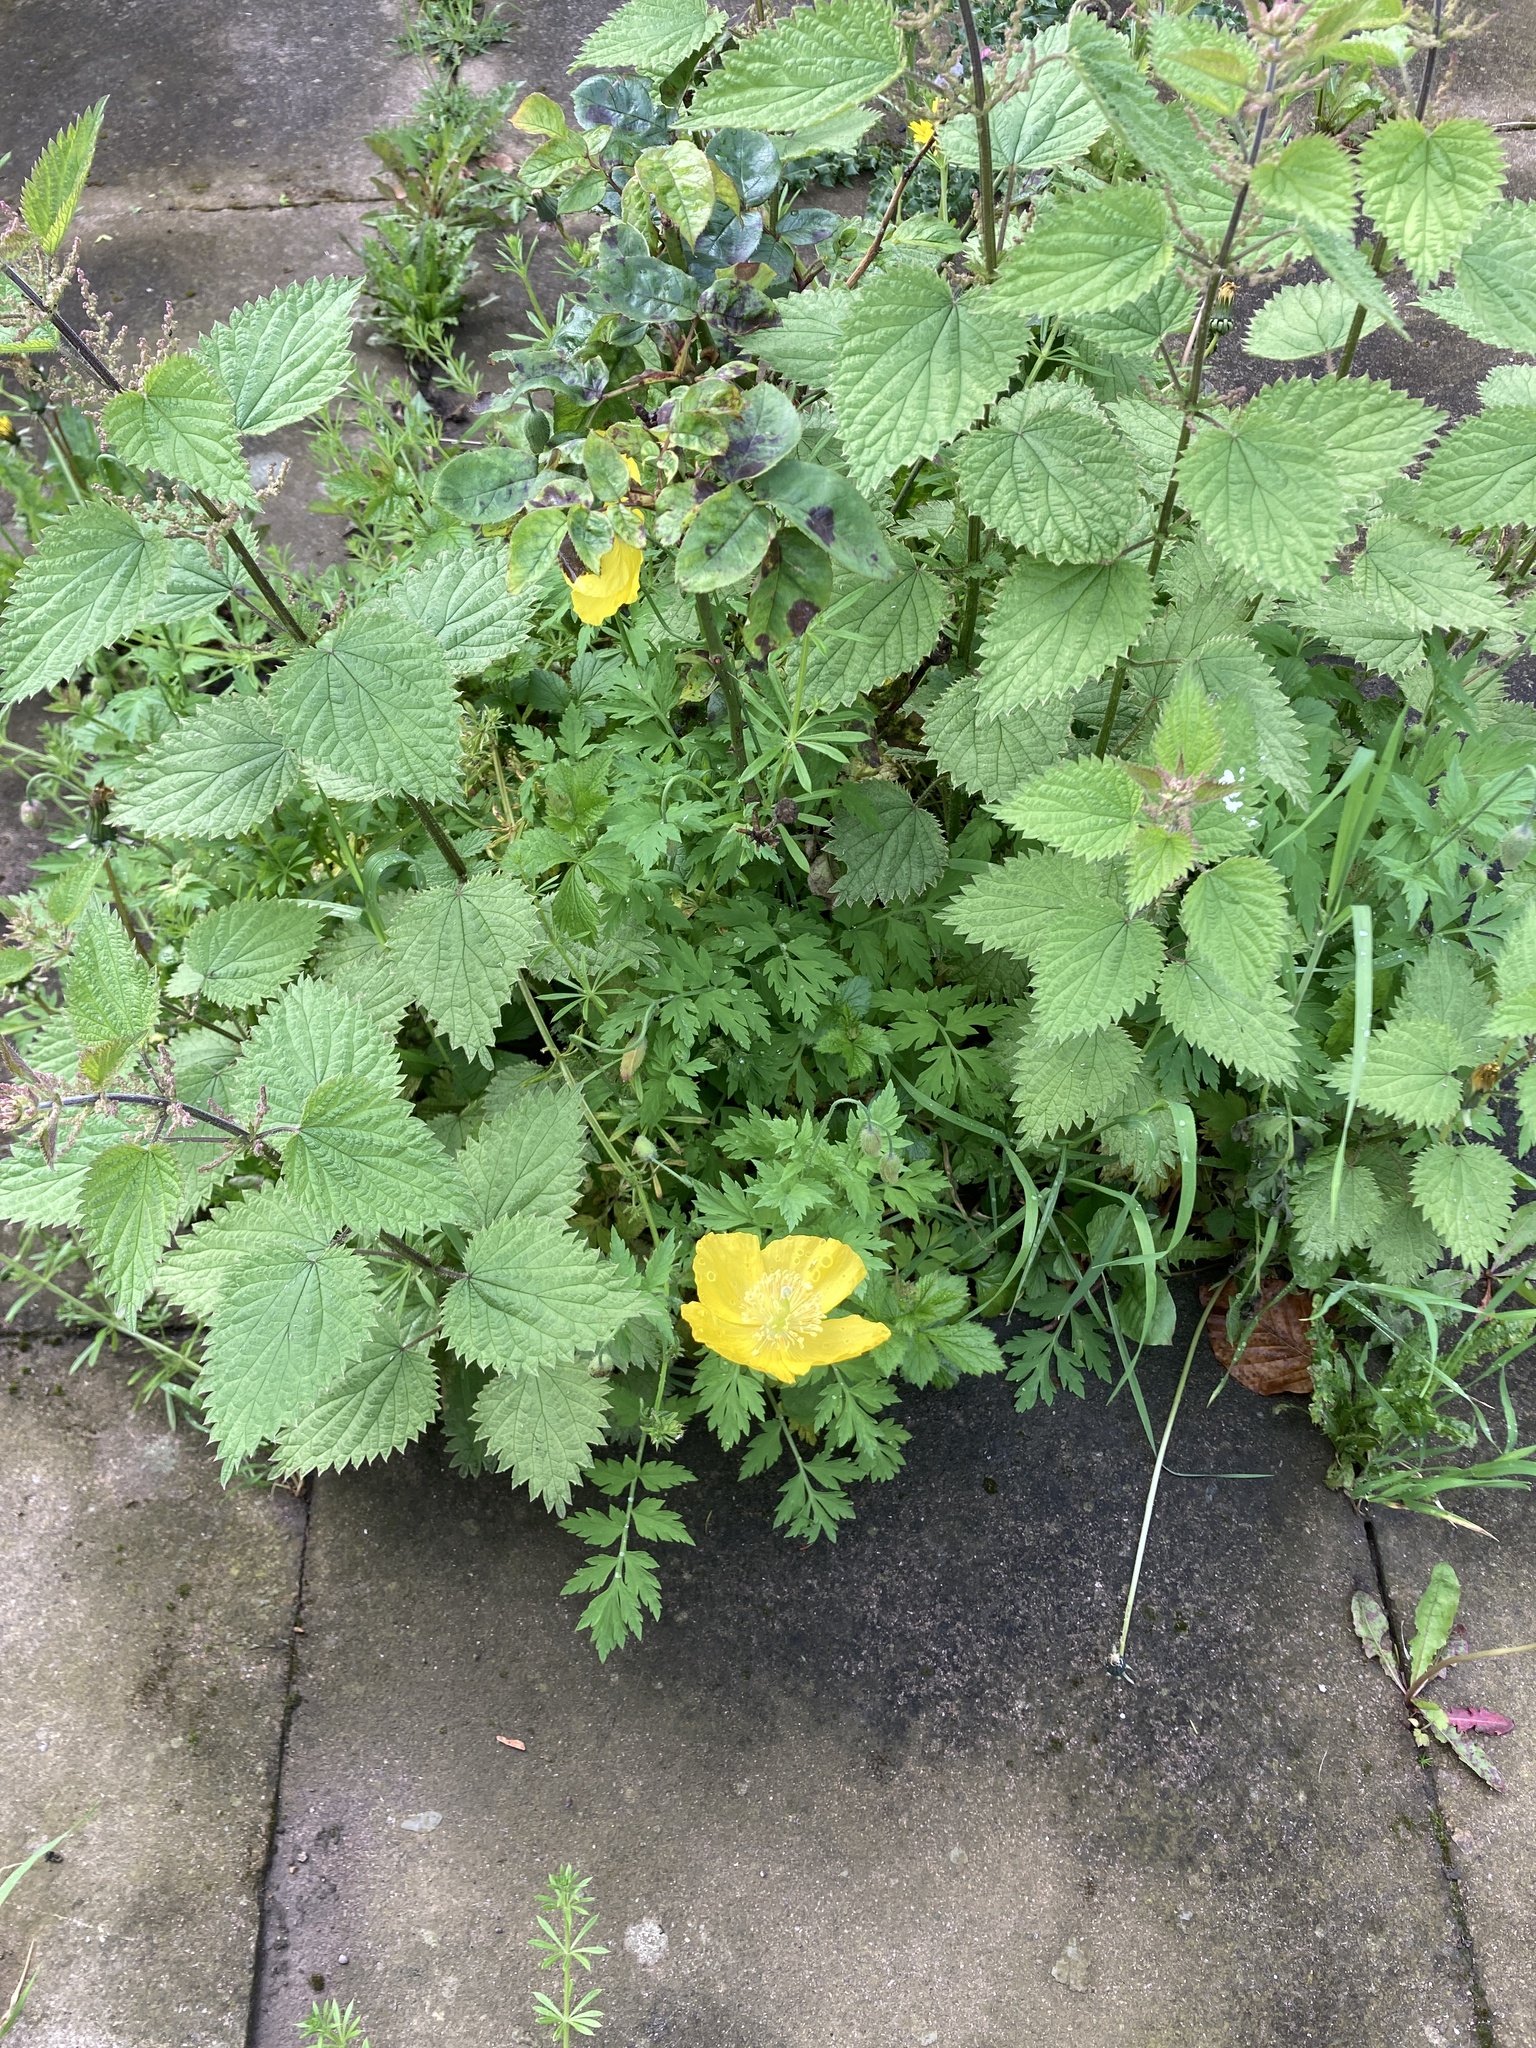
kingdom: Plantae
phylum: Tracheophyta
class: Magnoliopsida
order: Ranunculales
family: Papaveraceae
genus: Papaver
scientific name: Papaver cambricum
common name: Poppy
